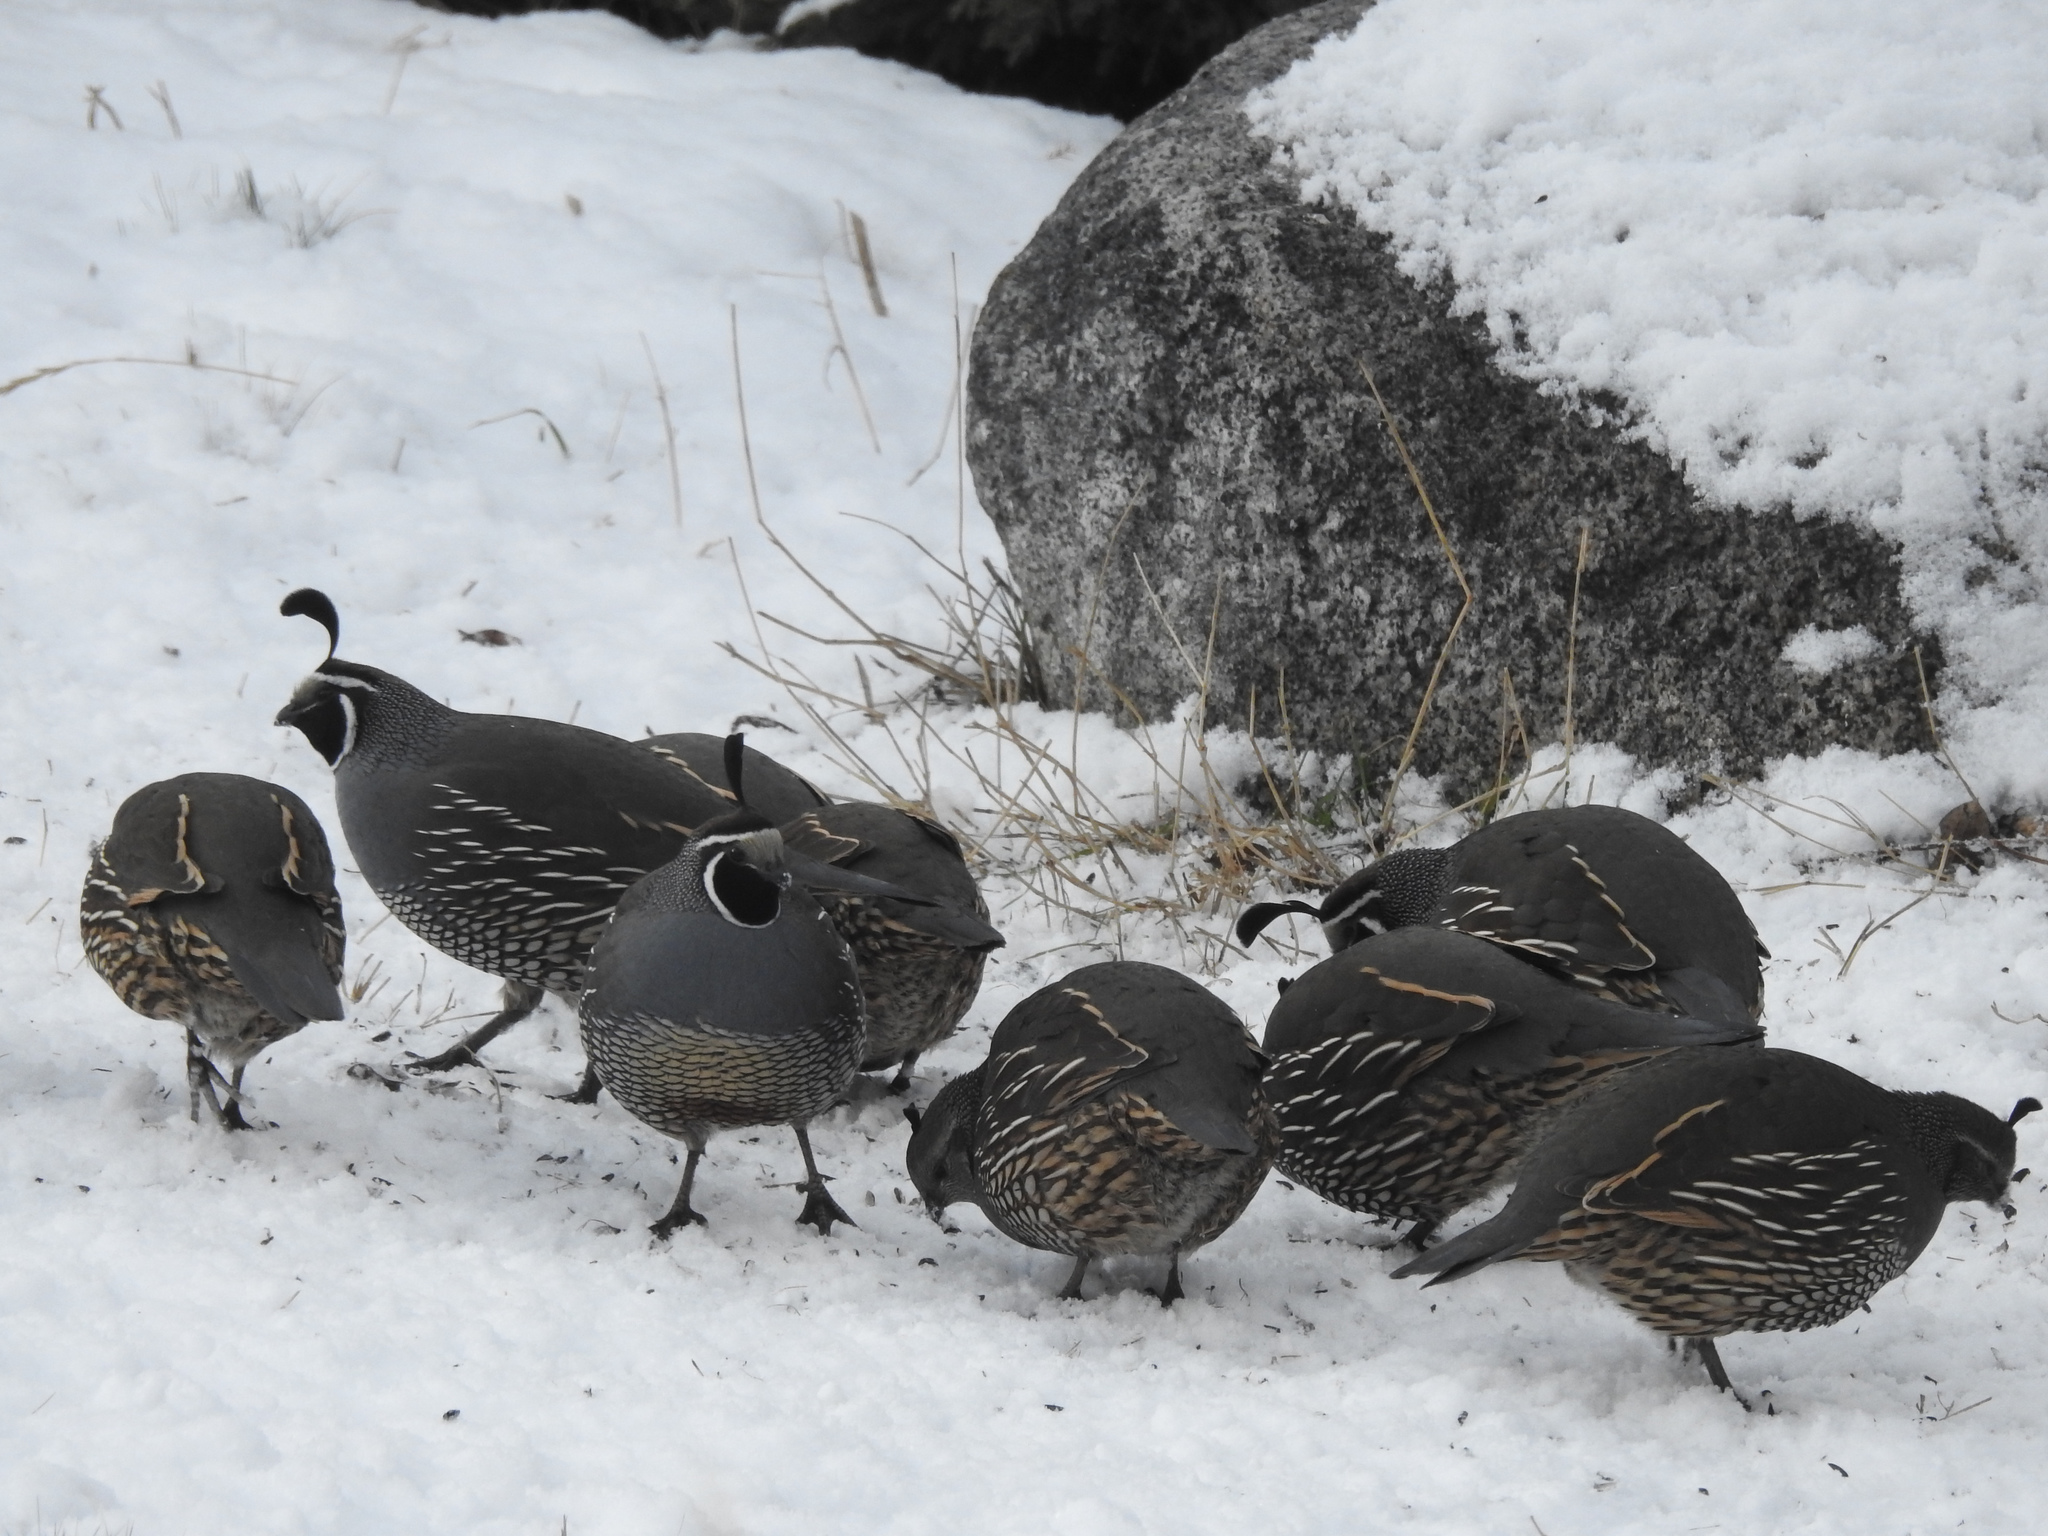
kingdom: Animalia
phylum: Chordata
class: Aves
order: Galliformes
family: Odontophoridae
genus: Callipepla
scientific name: Callipepla californica
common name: California quail
